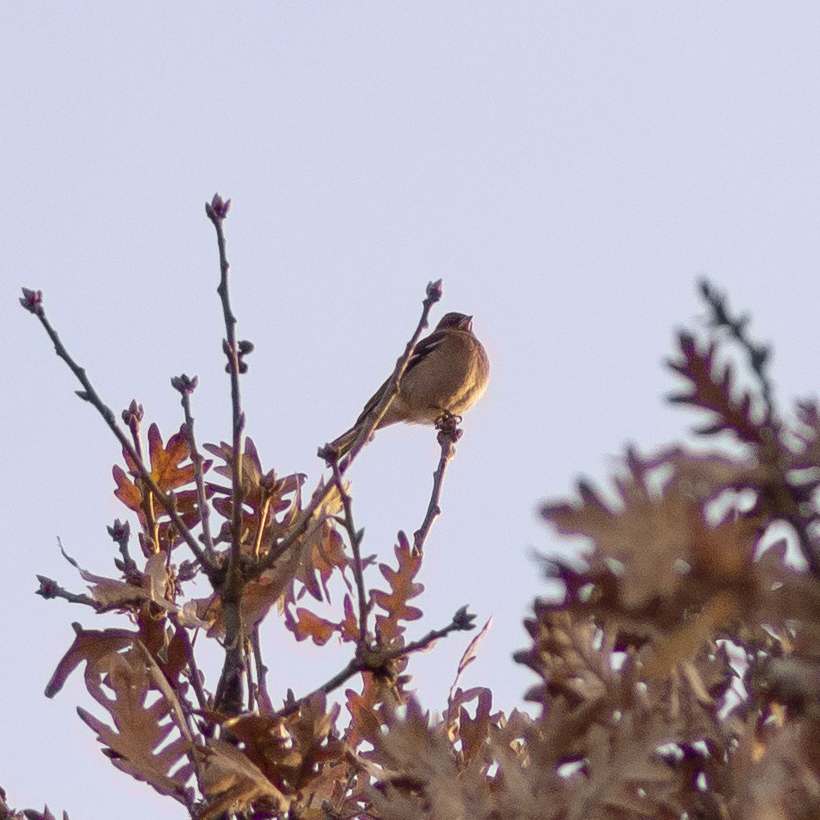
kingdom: Animalia
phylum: Chordata
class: Aves
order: Passeriformes
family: Fringillidae
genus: Fringilla
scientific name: Fringilla coelebs
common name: Common chaffinch
